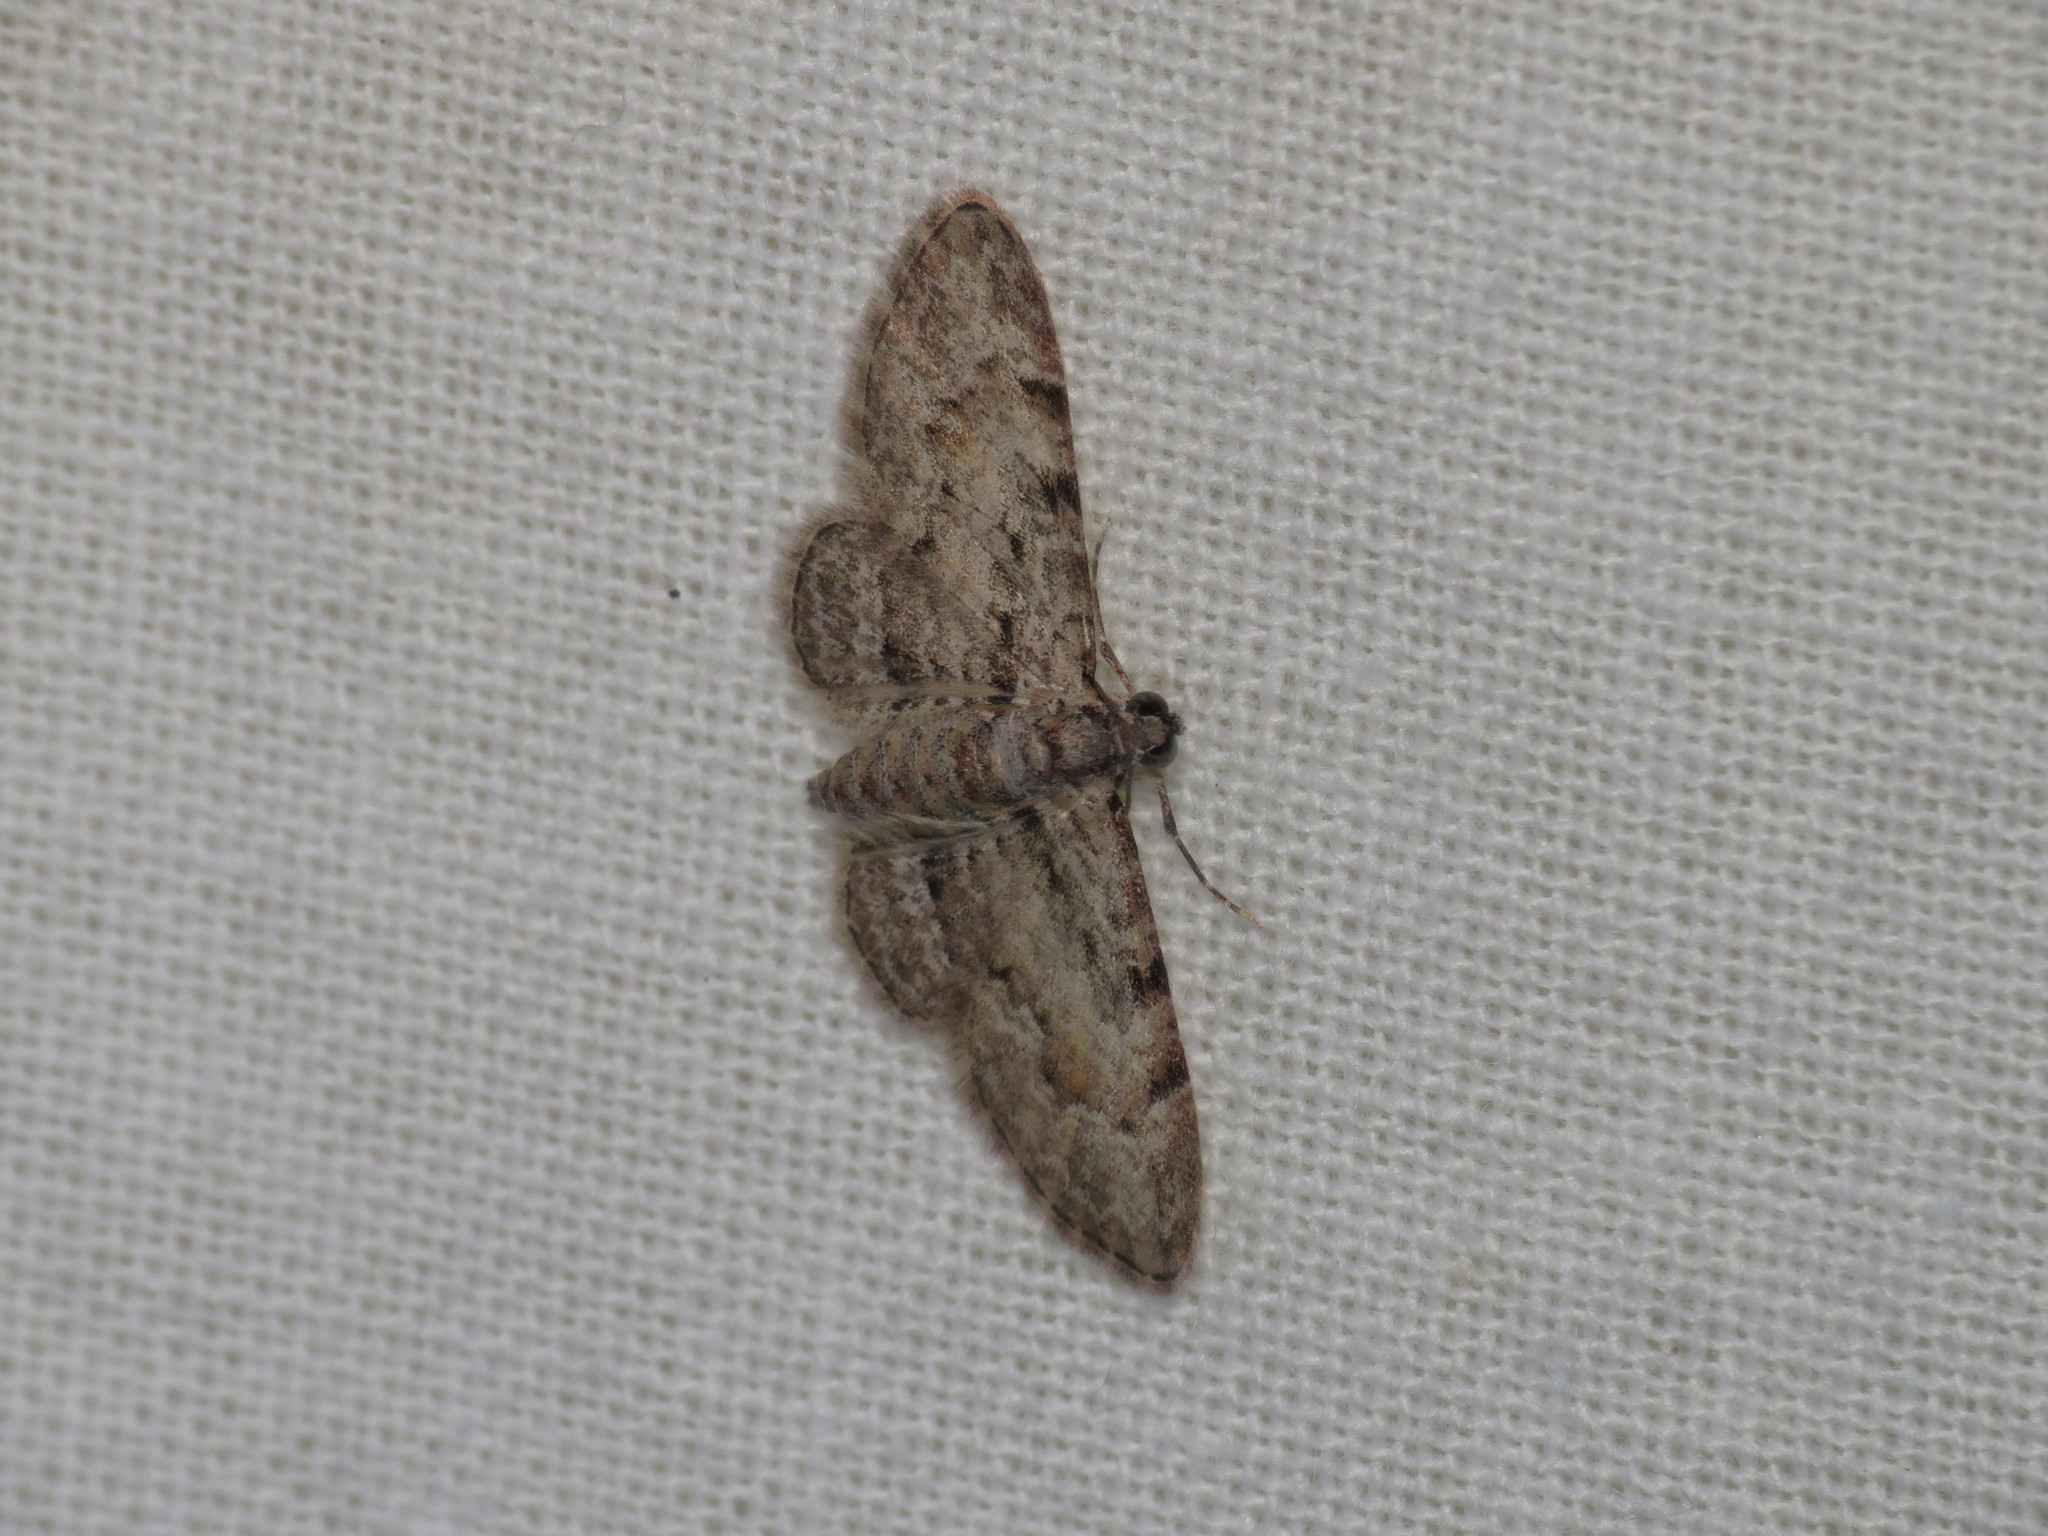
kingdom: Animalia
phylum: Arthropoda
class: Insecta
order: Lepidoptera
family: Geometridae
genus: Chloroclystis
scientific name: Chloroclystis insigillata
